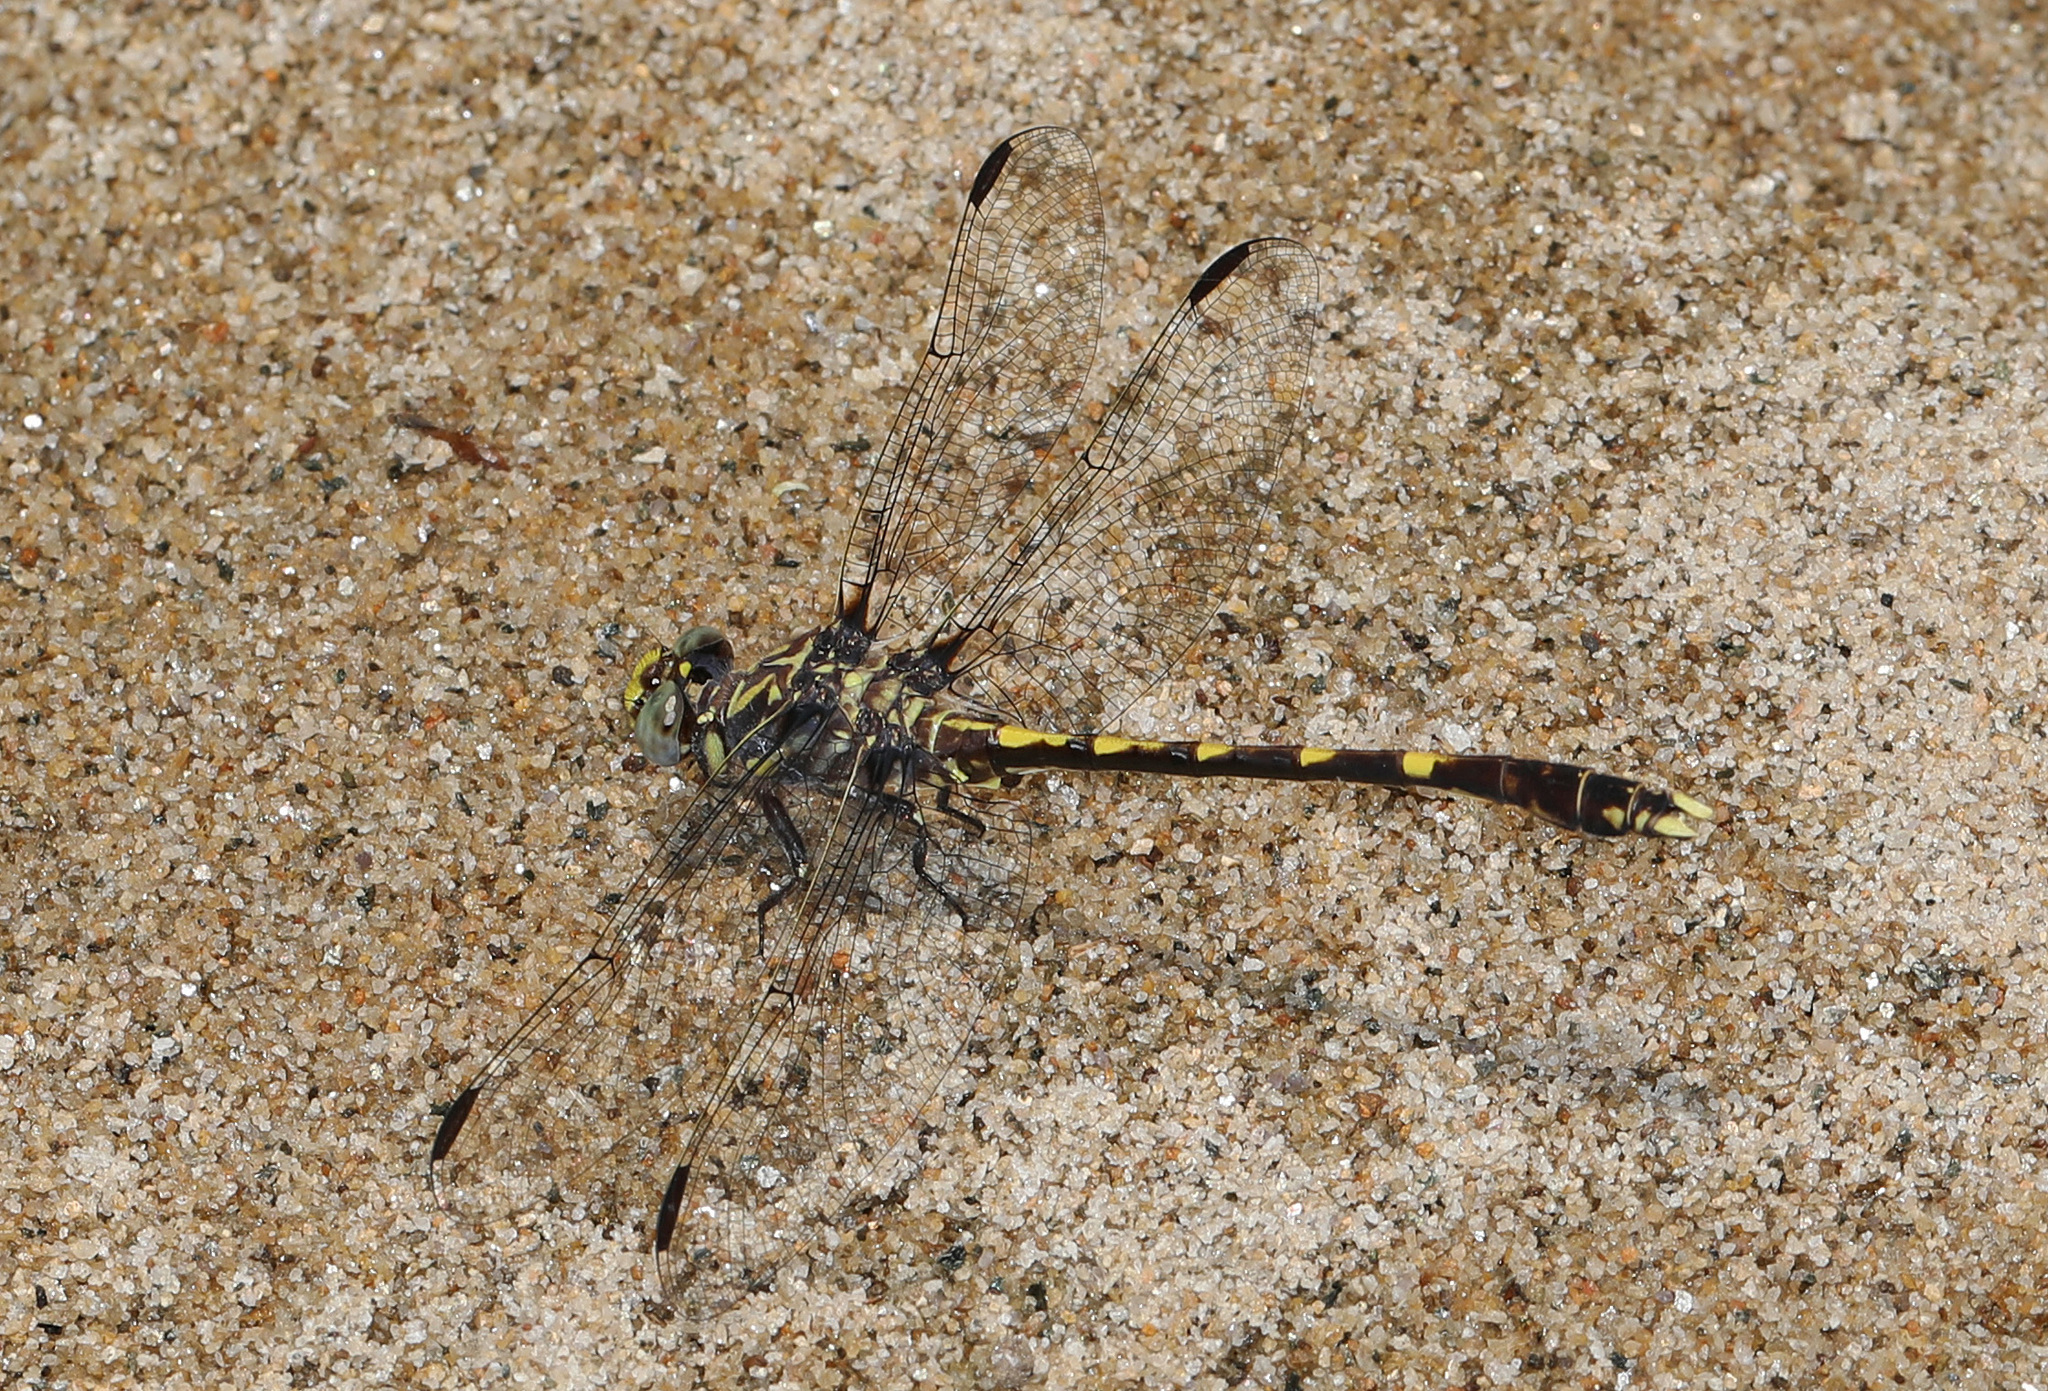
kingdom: Animalia
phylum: Arthropoda
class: Insecta
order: Odonata
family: Gomphidae
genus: Progomphus
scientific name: Progomphus obscurus
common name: Common sanddragon
